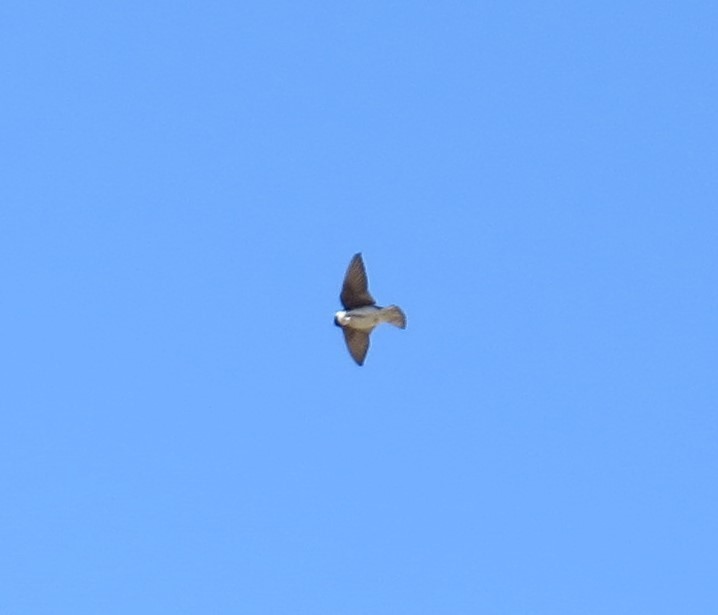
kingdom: Animalia
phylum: Chordata
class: Aves
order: Passeriformes
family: Hirundinidae
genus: Tachycineta
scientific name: Tachycineta bicolor
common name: Tree swallow
